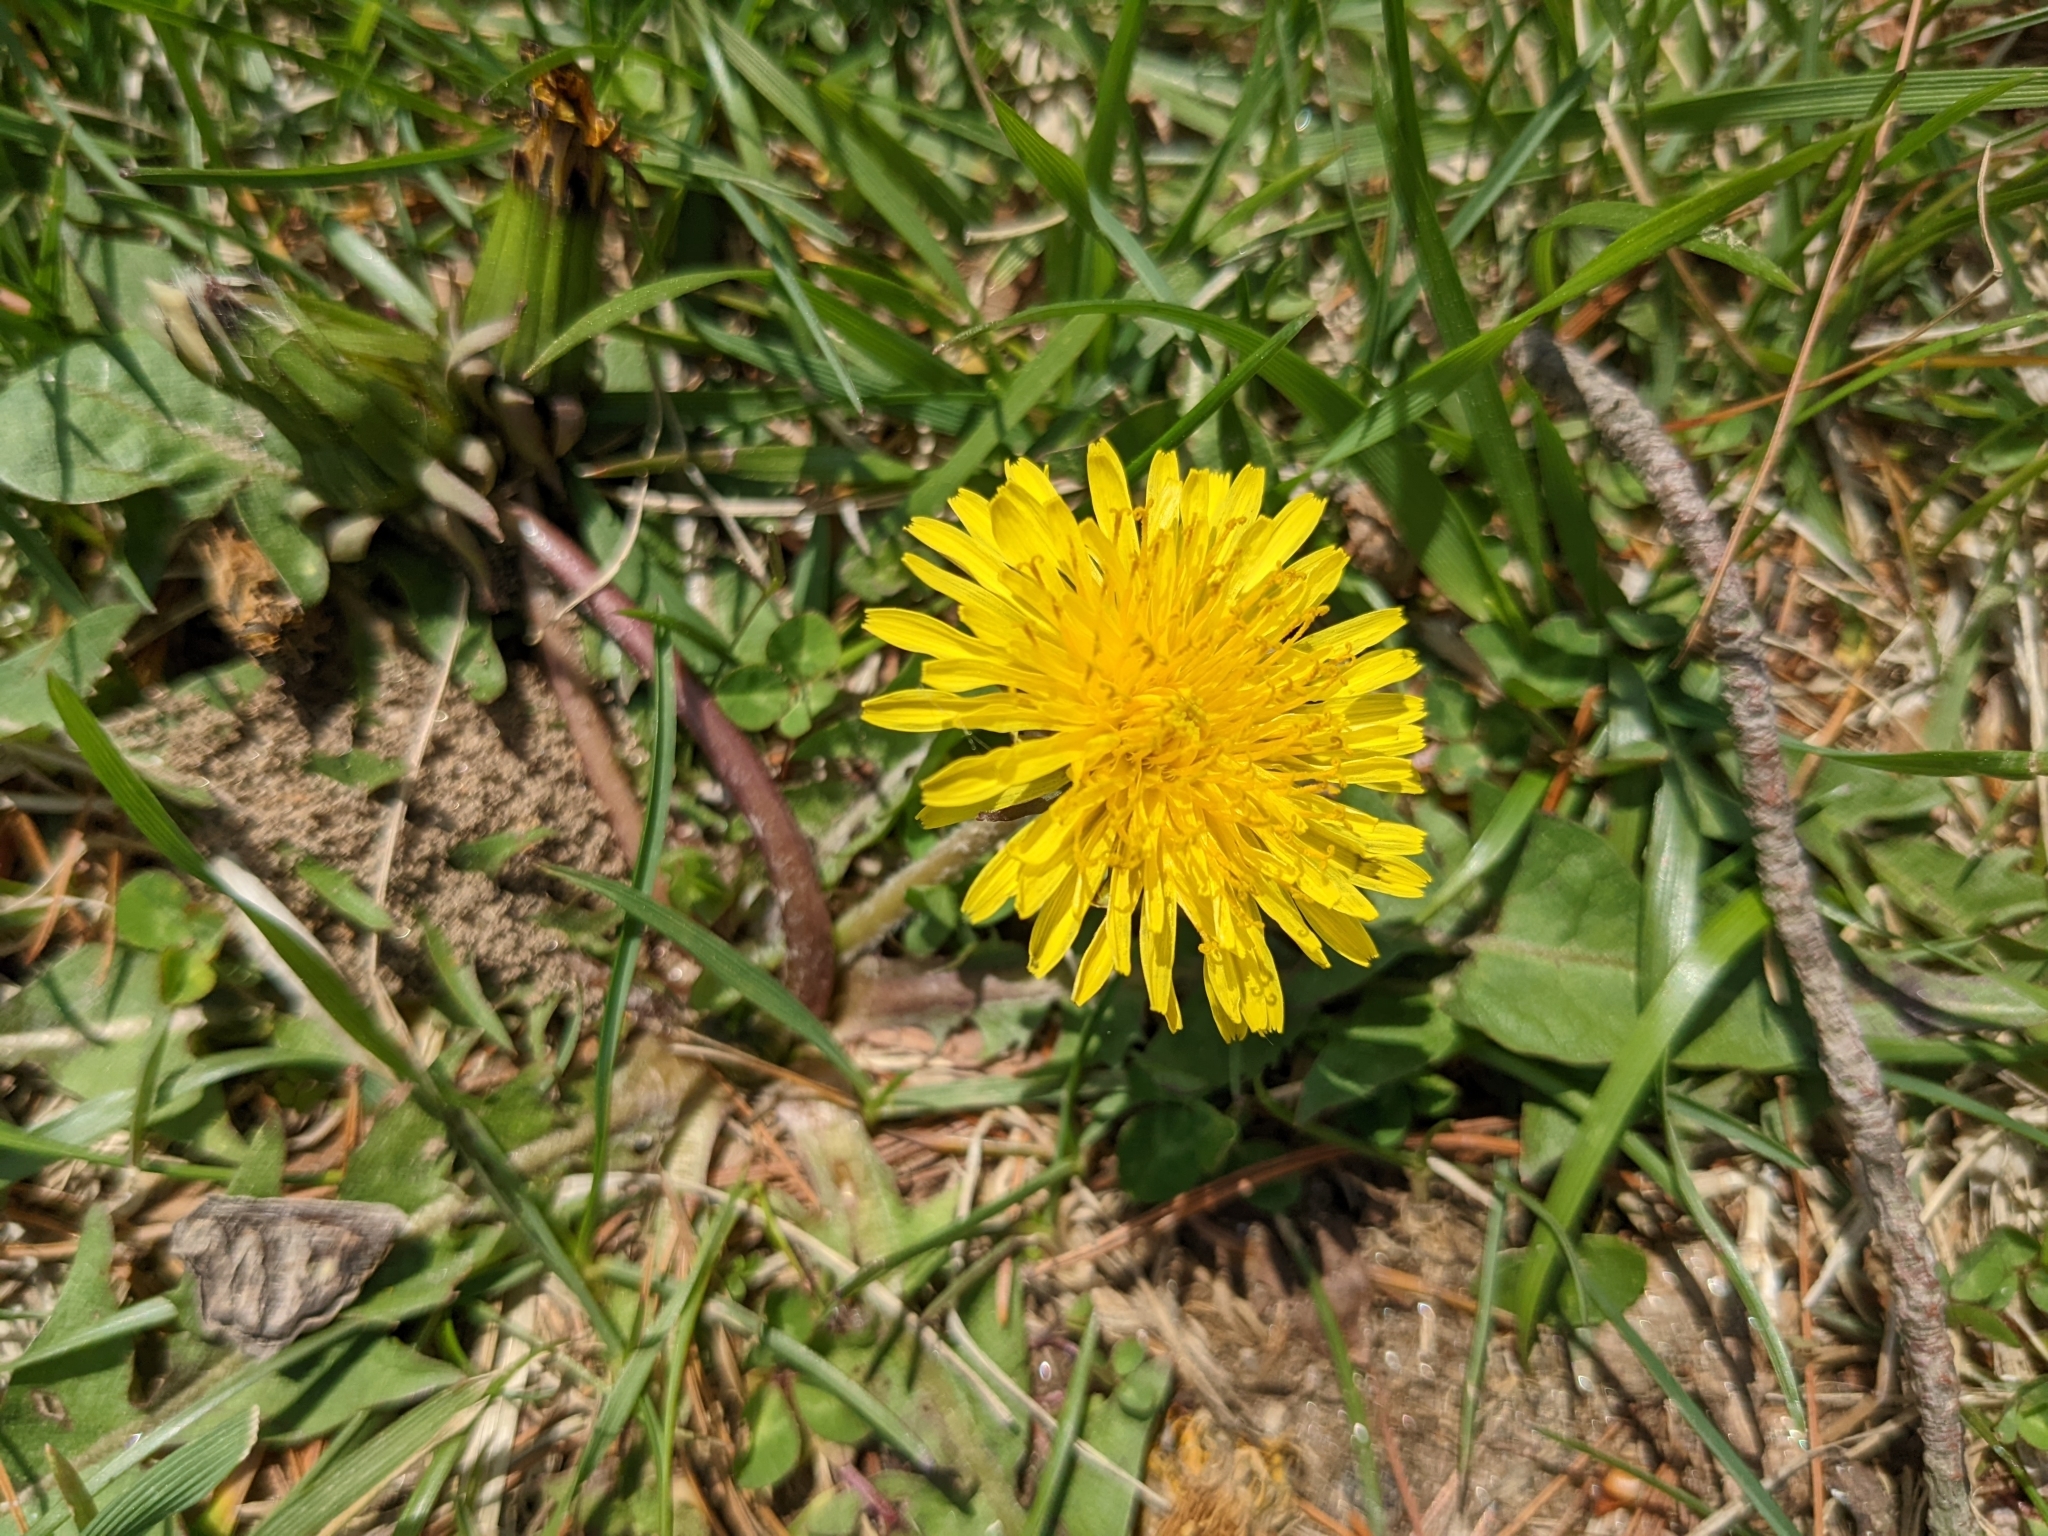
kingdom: Plantae
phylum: Tracheophyta
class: Magnoliopsida
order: Asterales
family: Asteraceae
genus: Taraxacum
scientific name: Taraxacum officinale
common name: Common dandelion
